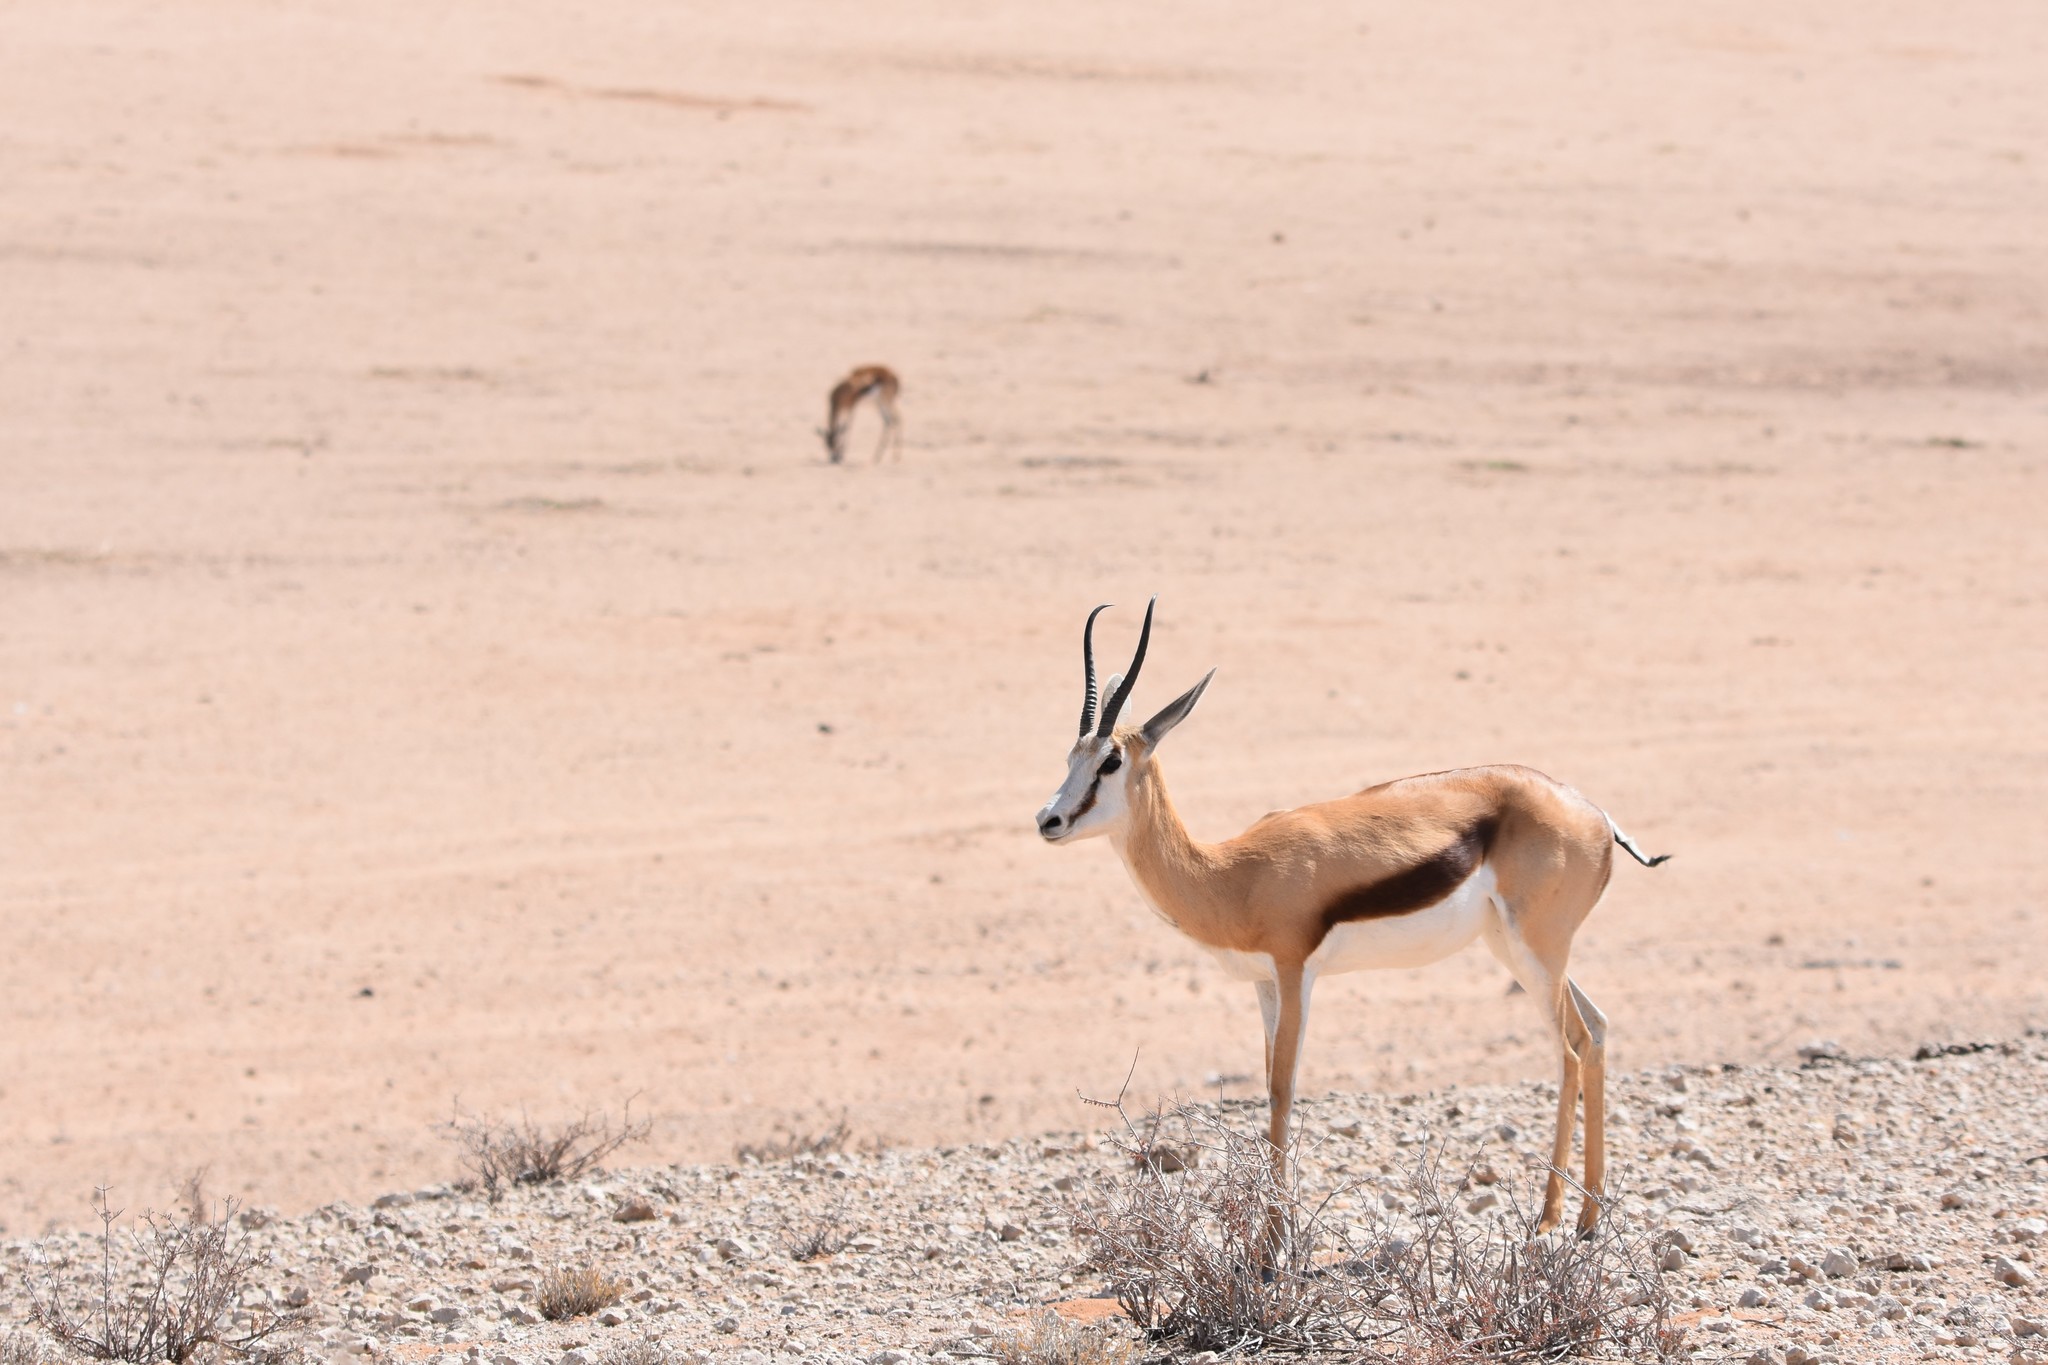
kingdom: Animalia
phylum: Chordata
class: Mammalia
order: Artiodactyla
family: Bovidae
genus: Antidorcas
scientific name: Antidorcas marsupialis
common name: Springbok
